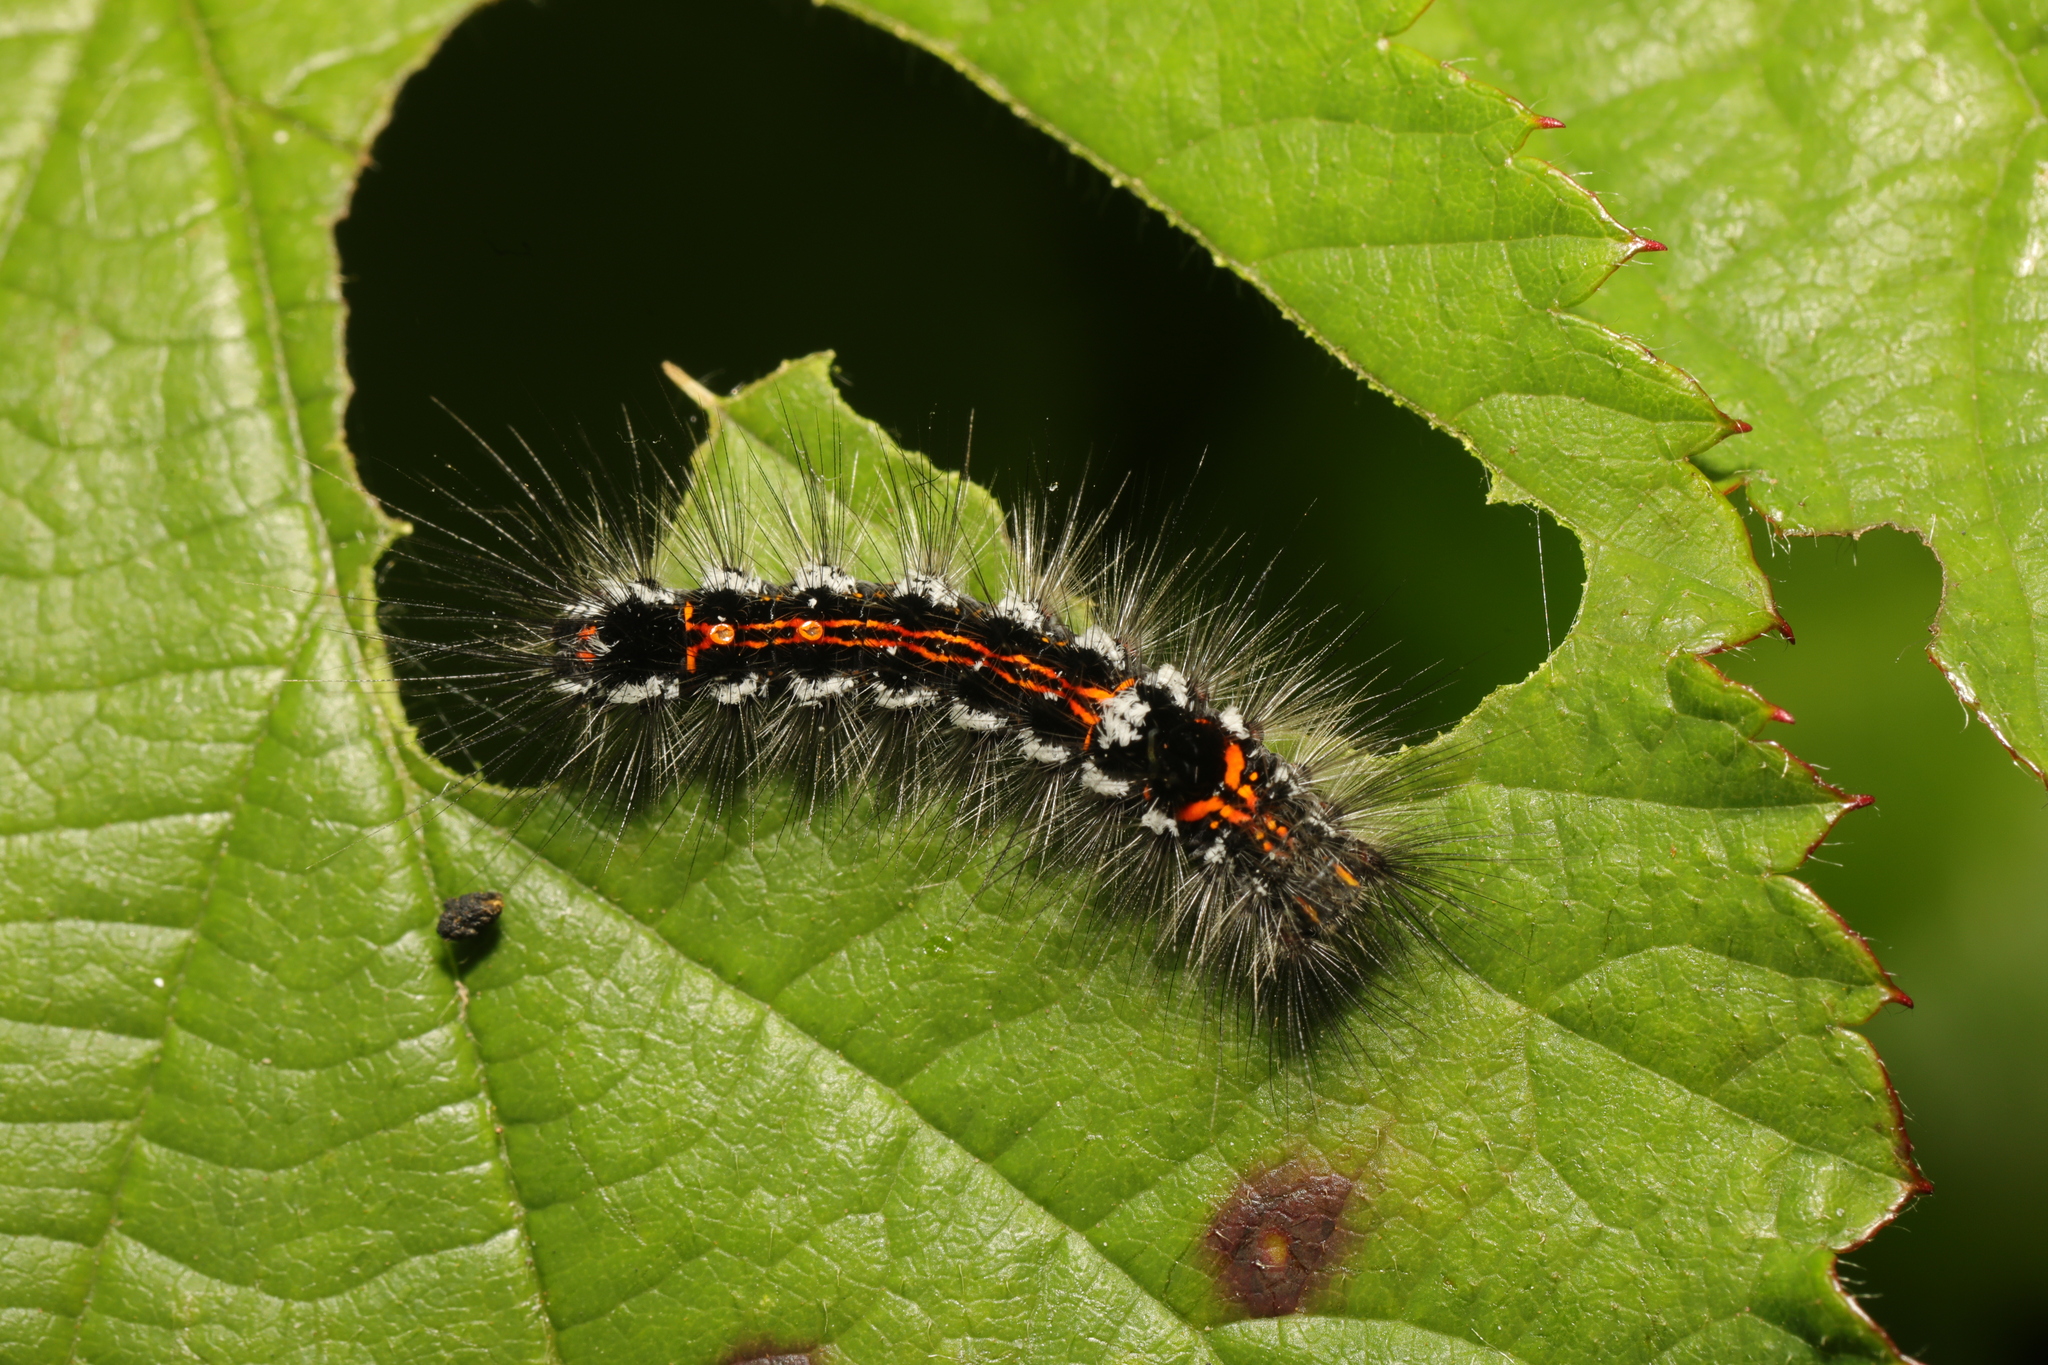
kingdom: Animalia
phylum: Arthropoda
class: Insecta
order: Lepidoptera
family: Erebidae
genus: Sphrageidus
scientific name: Sphrageidus similis
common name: Yellow-tail
